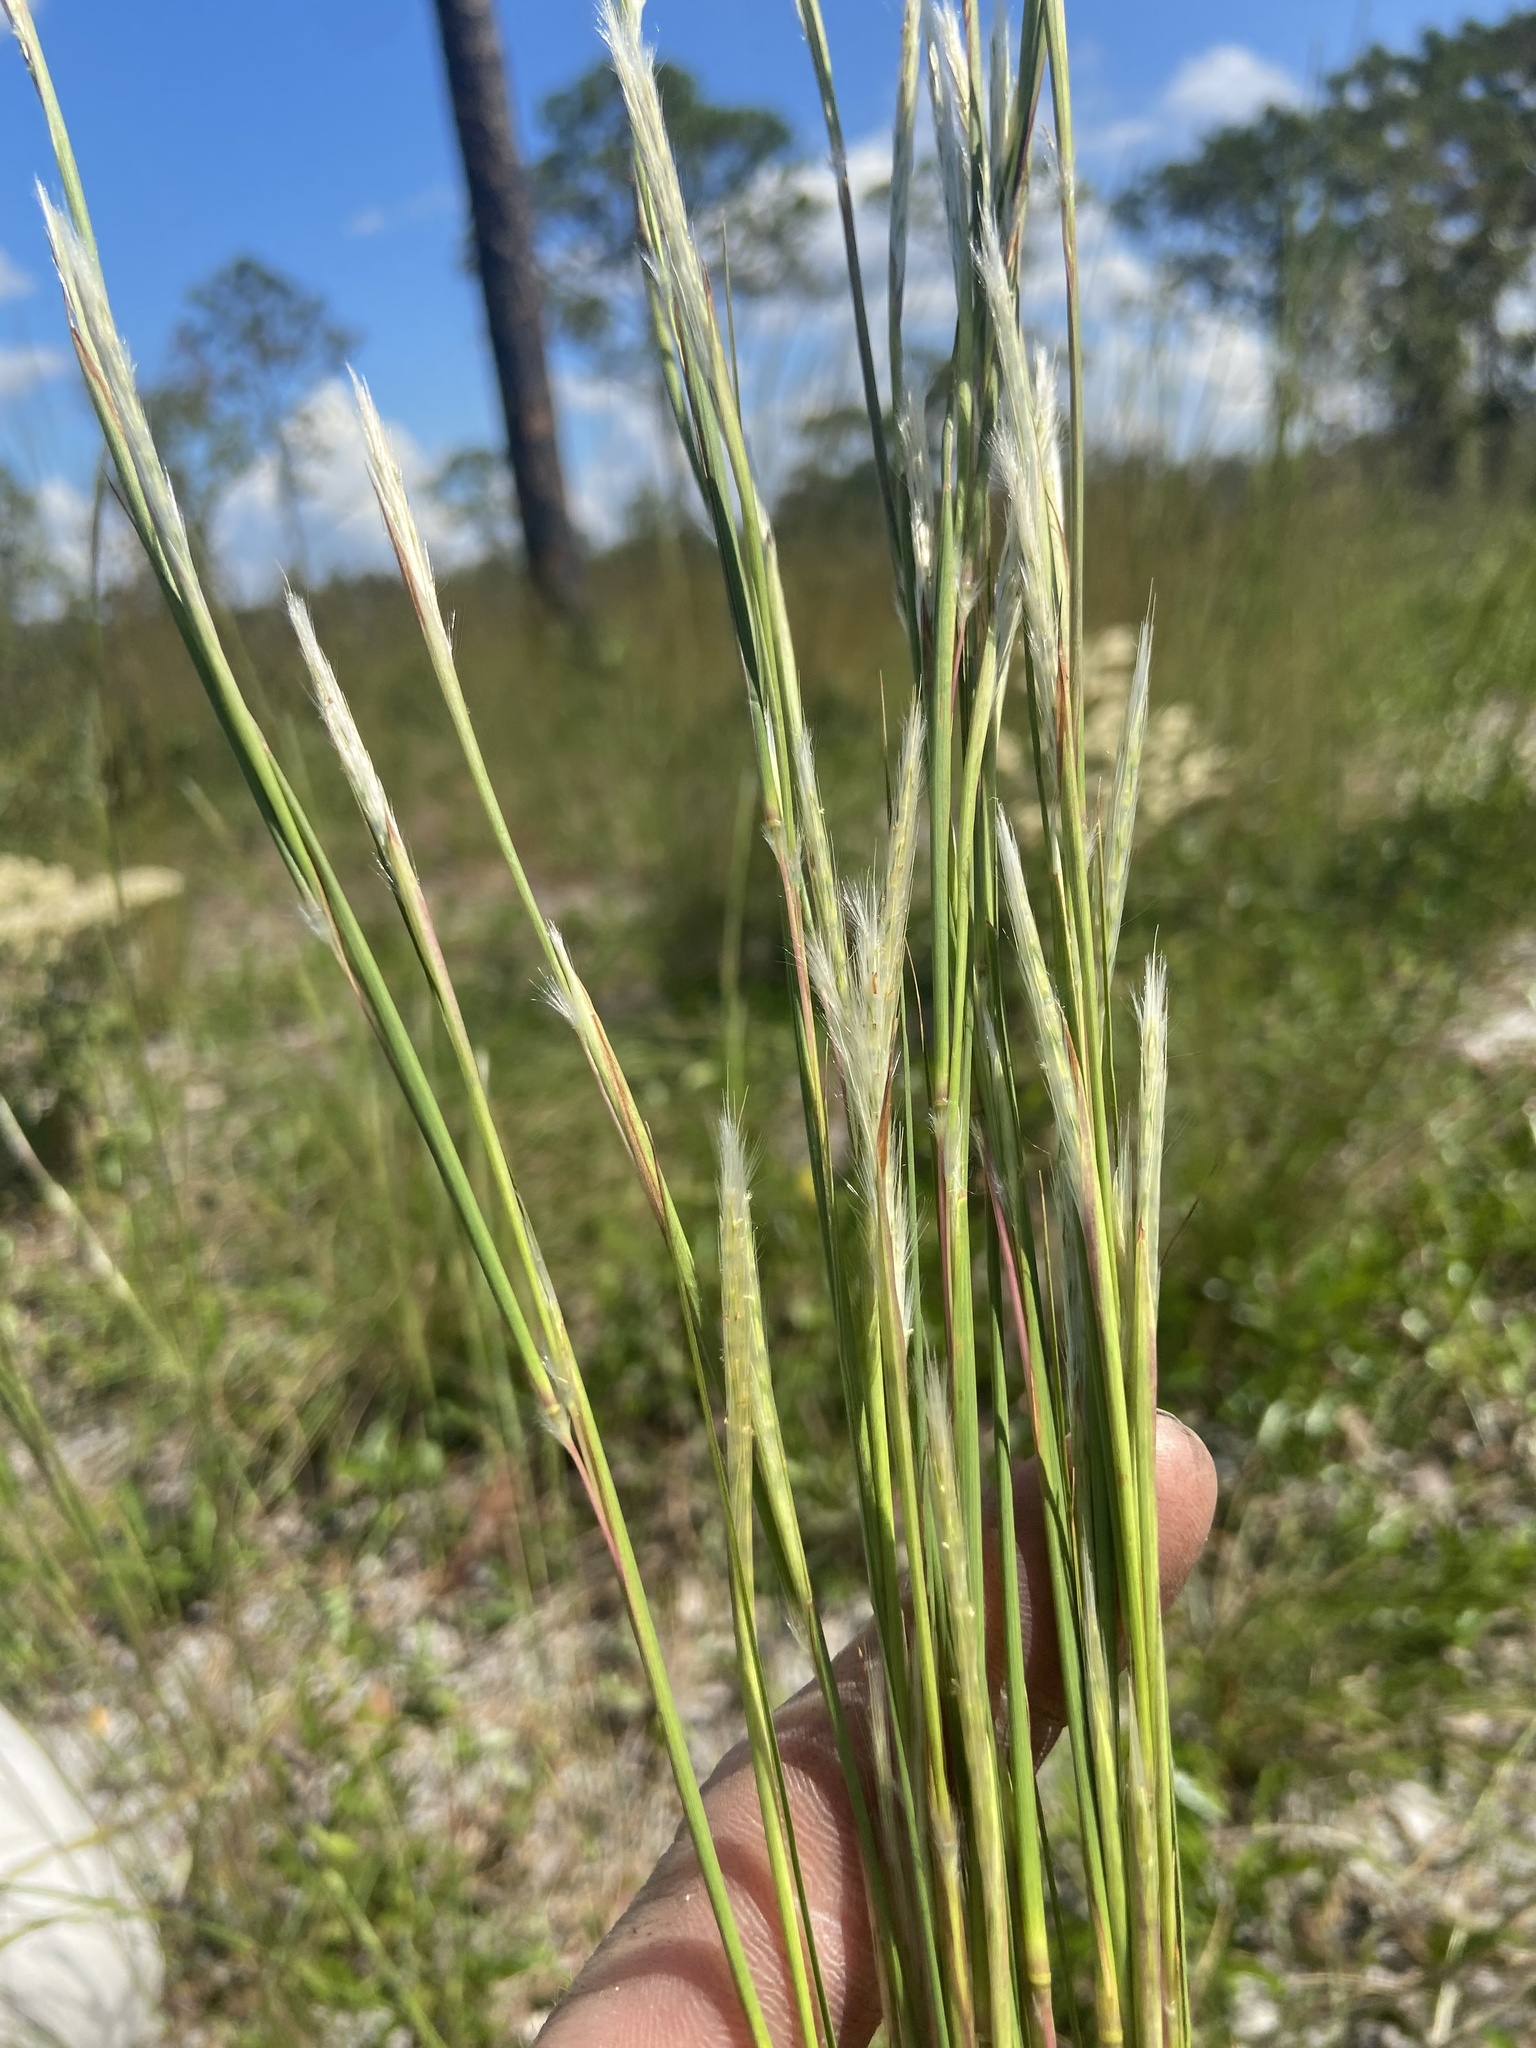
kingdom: Plantae
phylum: Tracheophyta
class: Liliopsida
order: Poales
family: Poaceae
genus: Andropogon
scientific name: Andropogon tracyi
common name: Tracy's bluestem
